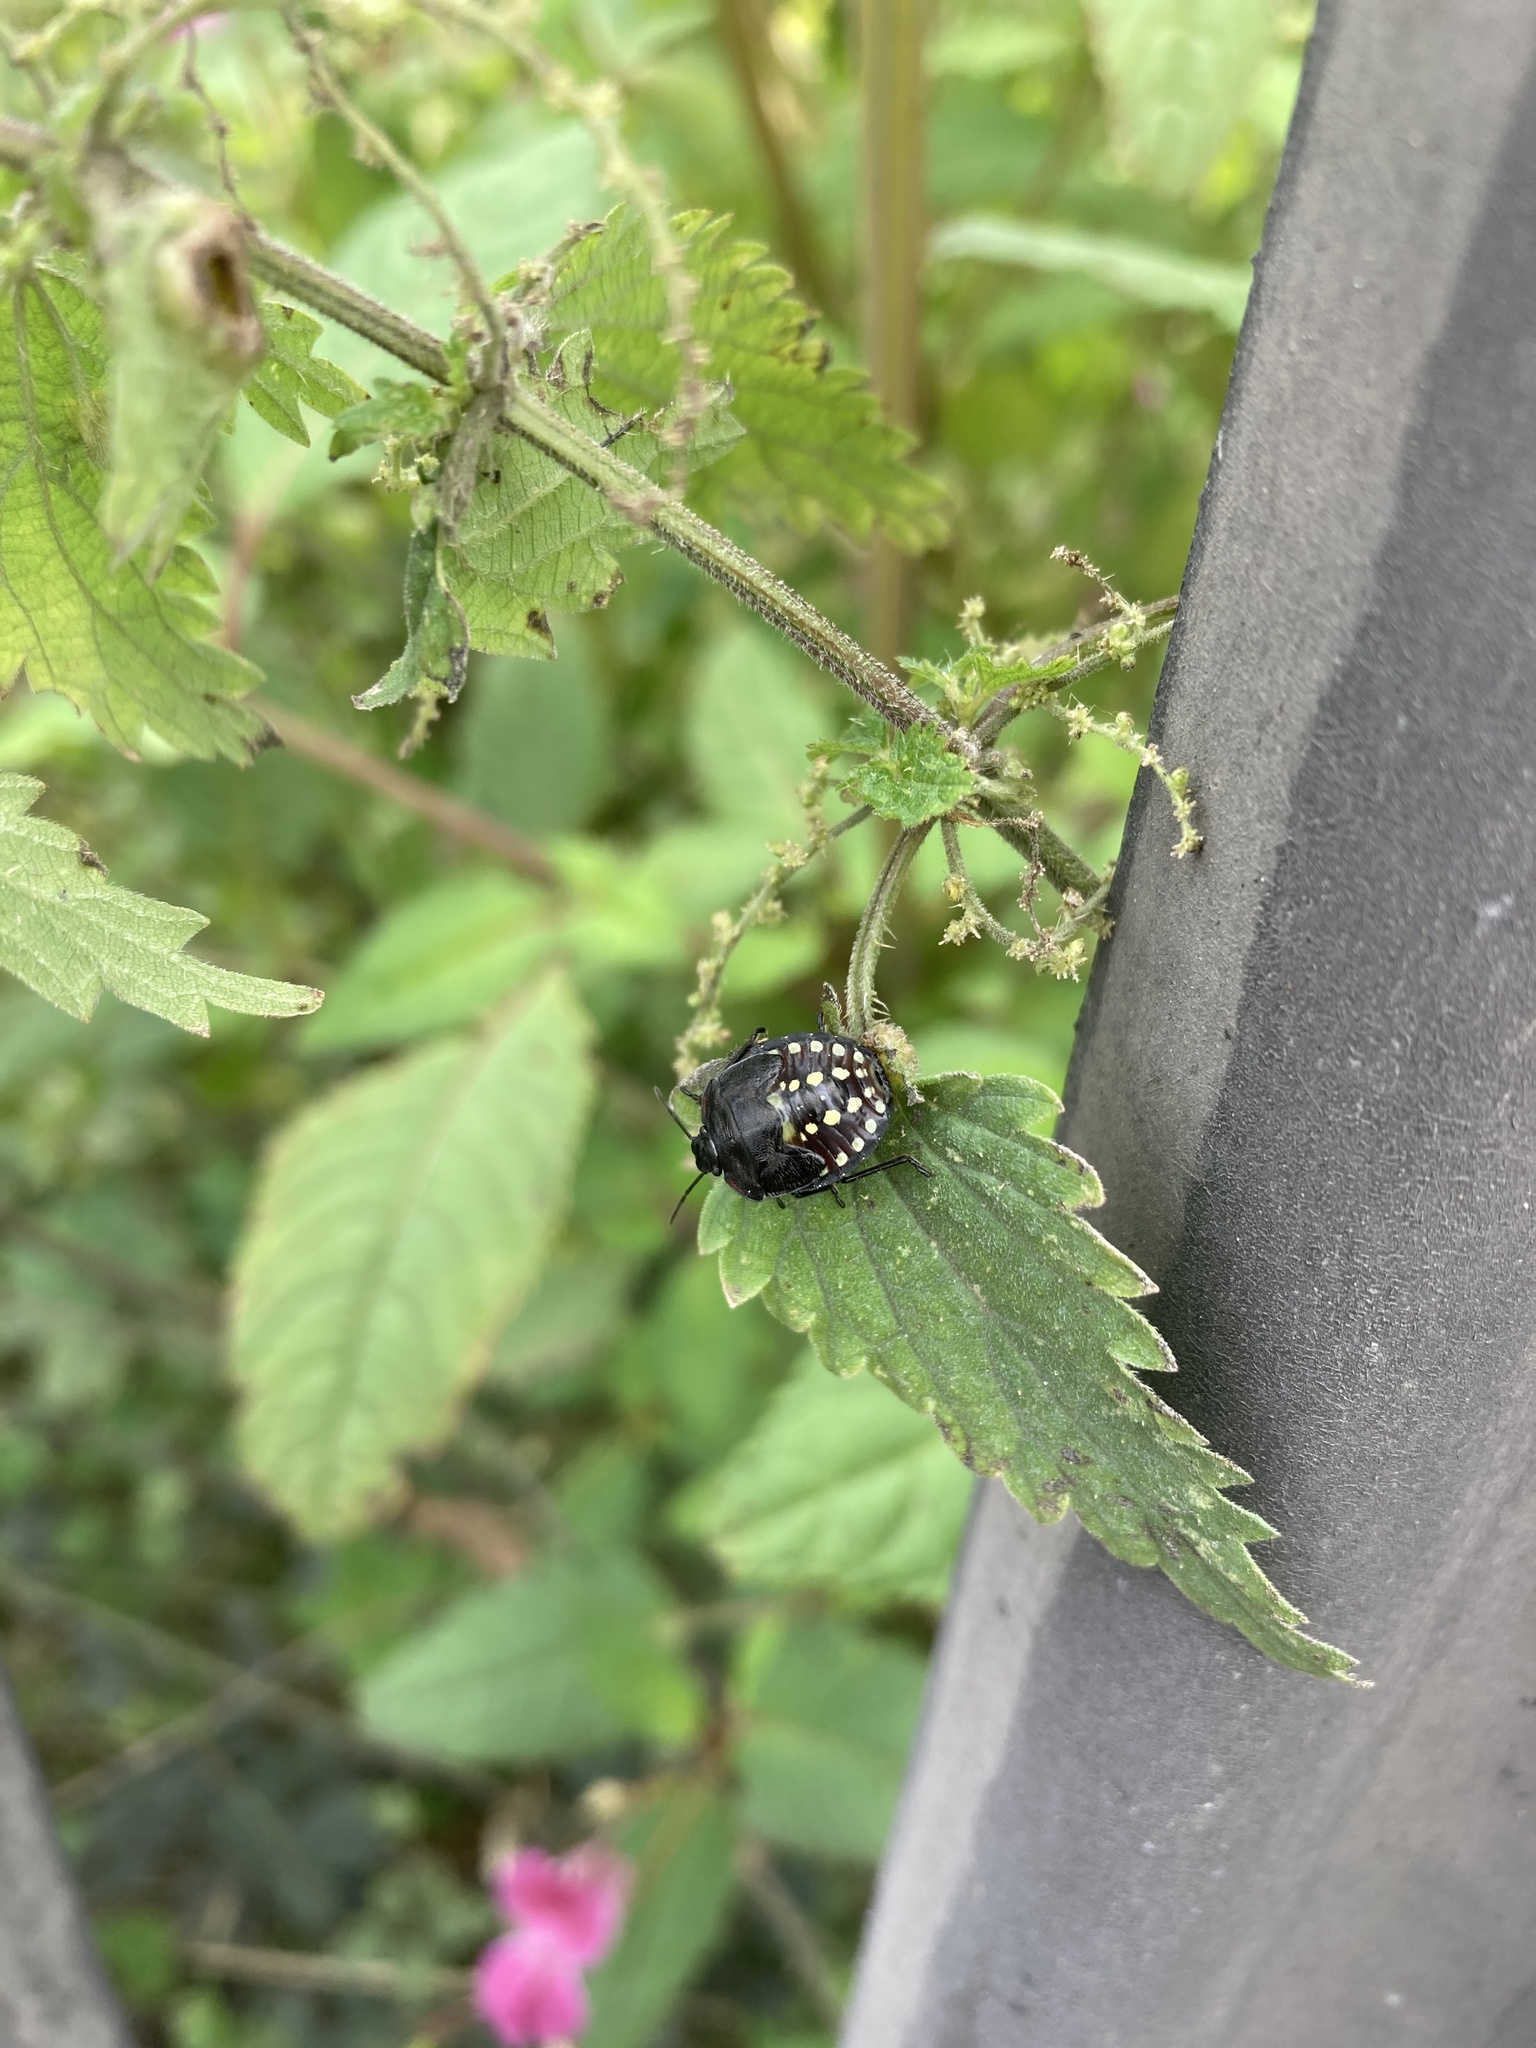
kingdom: Animalia
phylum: Arthropoda
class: Insecta
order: Hemiptera
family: Pentatomidae
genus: Nezara
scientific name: Nezara viridula
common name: Southern green stink bug
